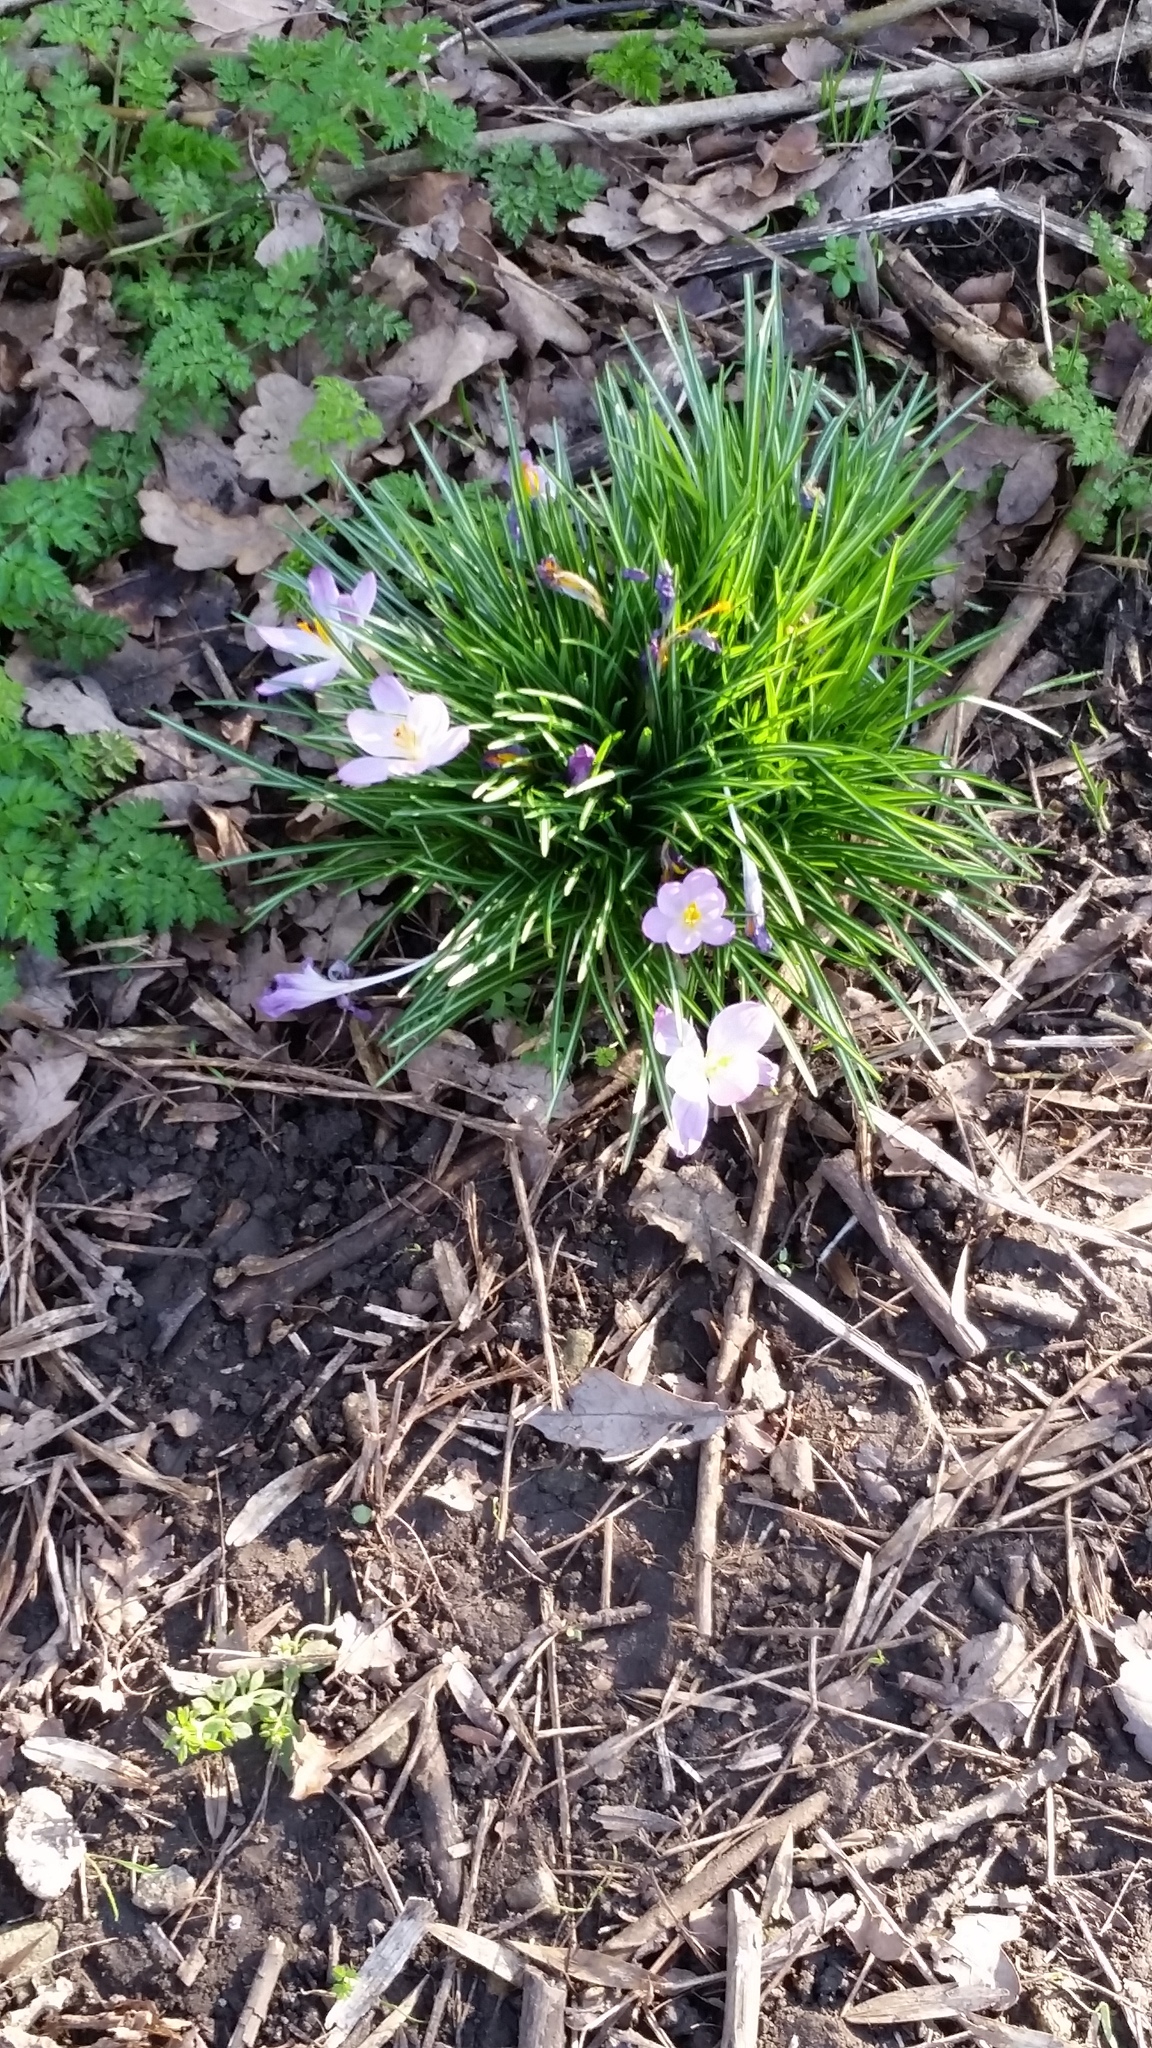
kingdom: Plantae
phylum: Tracheophyta
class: Liliopsida
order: Asparagales
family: Iridaceae
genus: Crocus
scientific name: Crocus tommasinianus
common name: Early crocus
